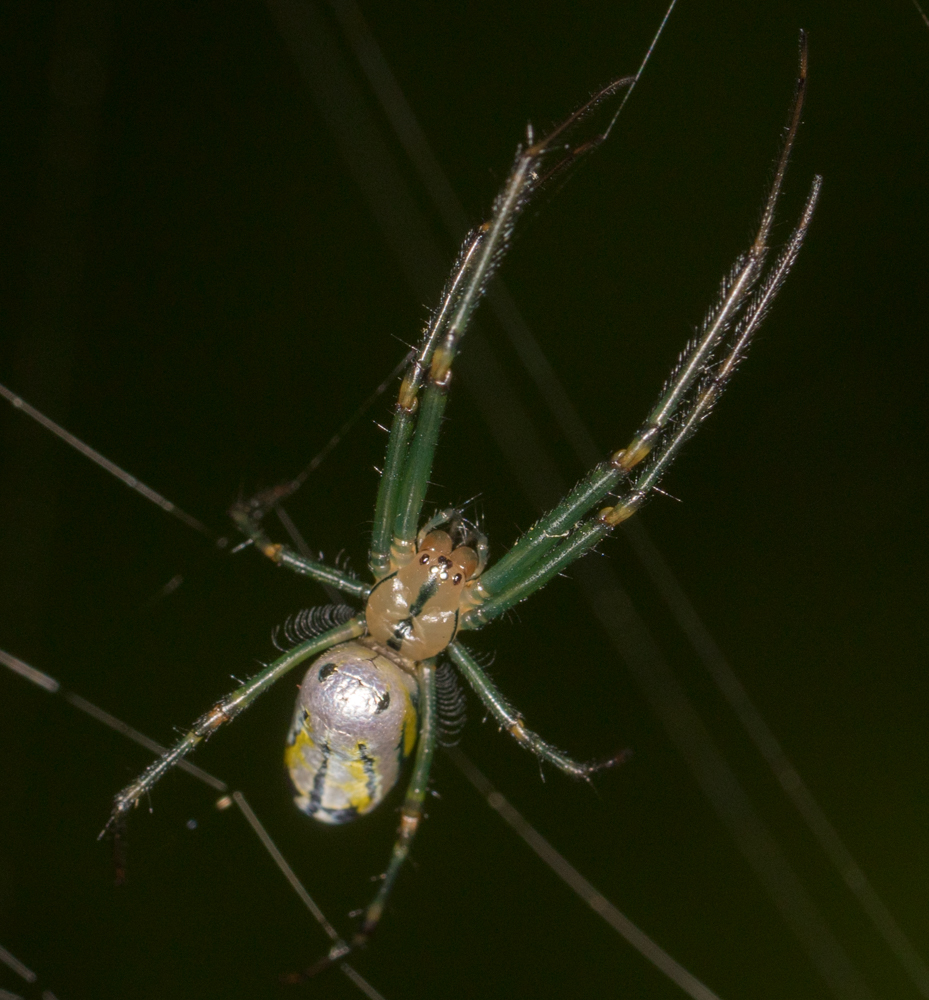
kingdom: Animalia
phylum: Arthropoda
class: Arachnida
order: Araneae
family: Tetragnathidae
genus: Leucauge
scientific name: Leucauge venusta
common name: Longjawed orb weavers
